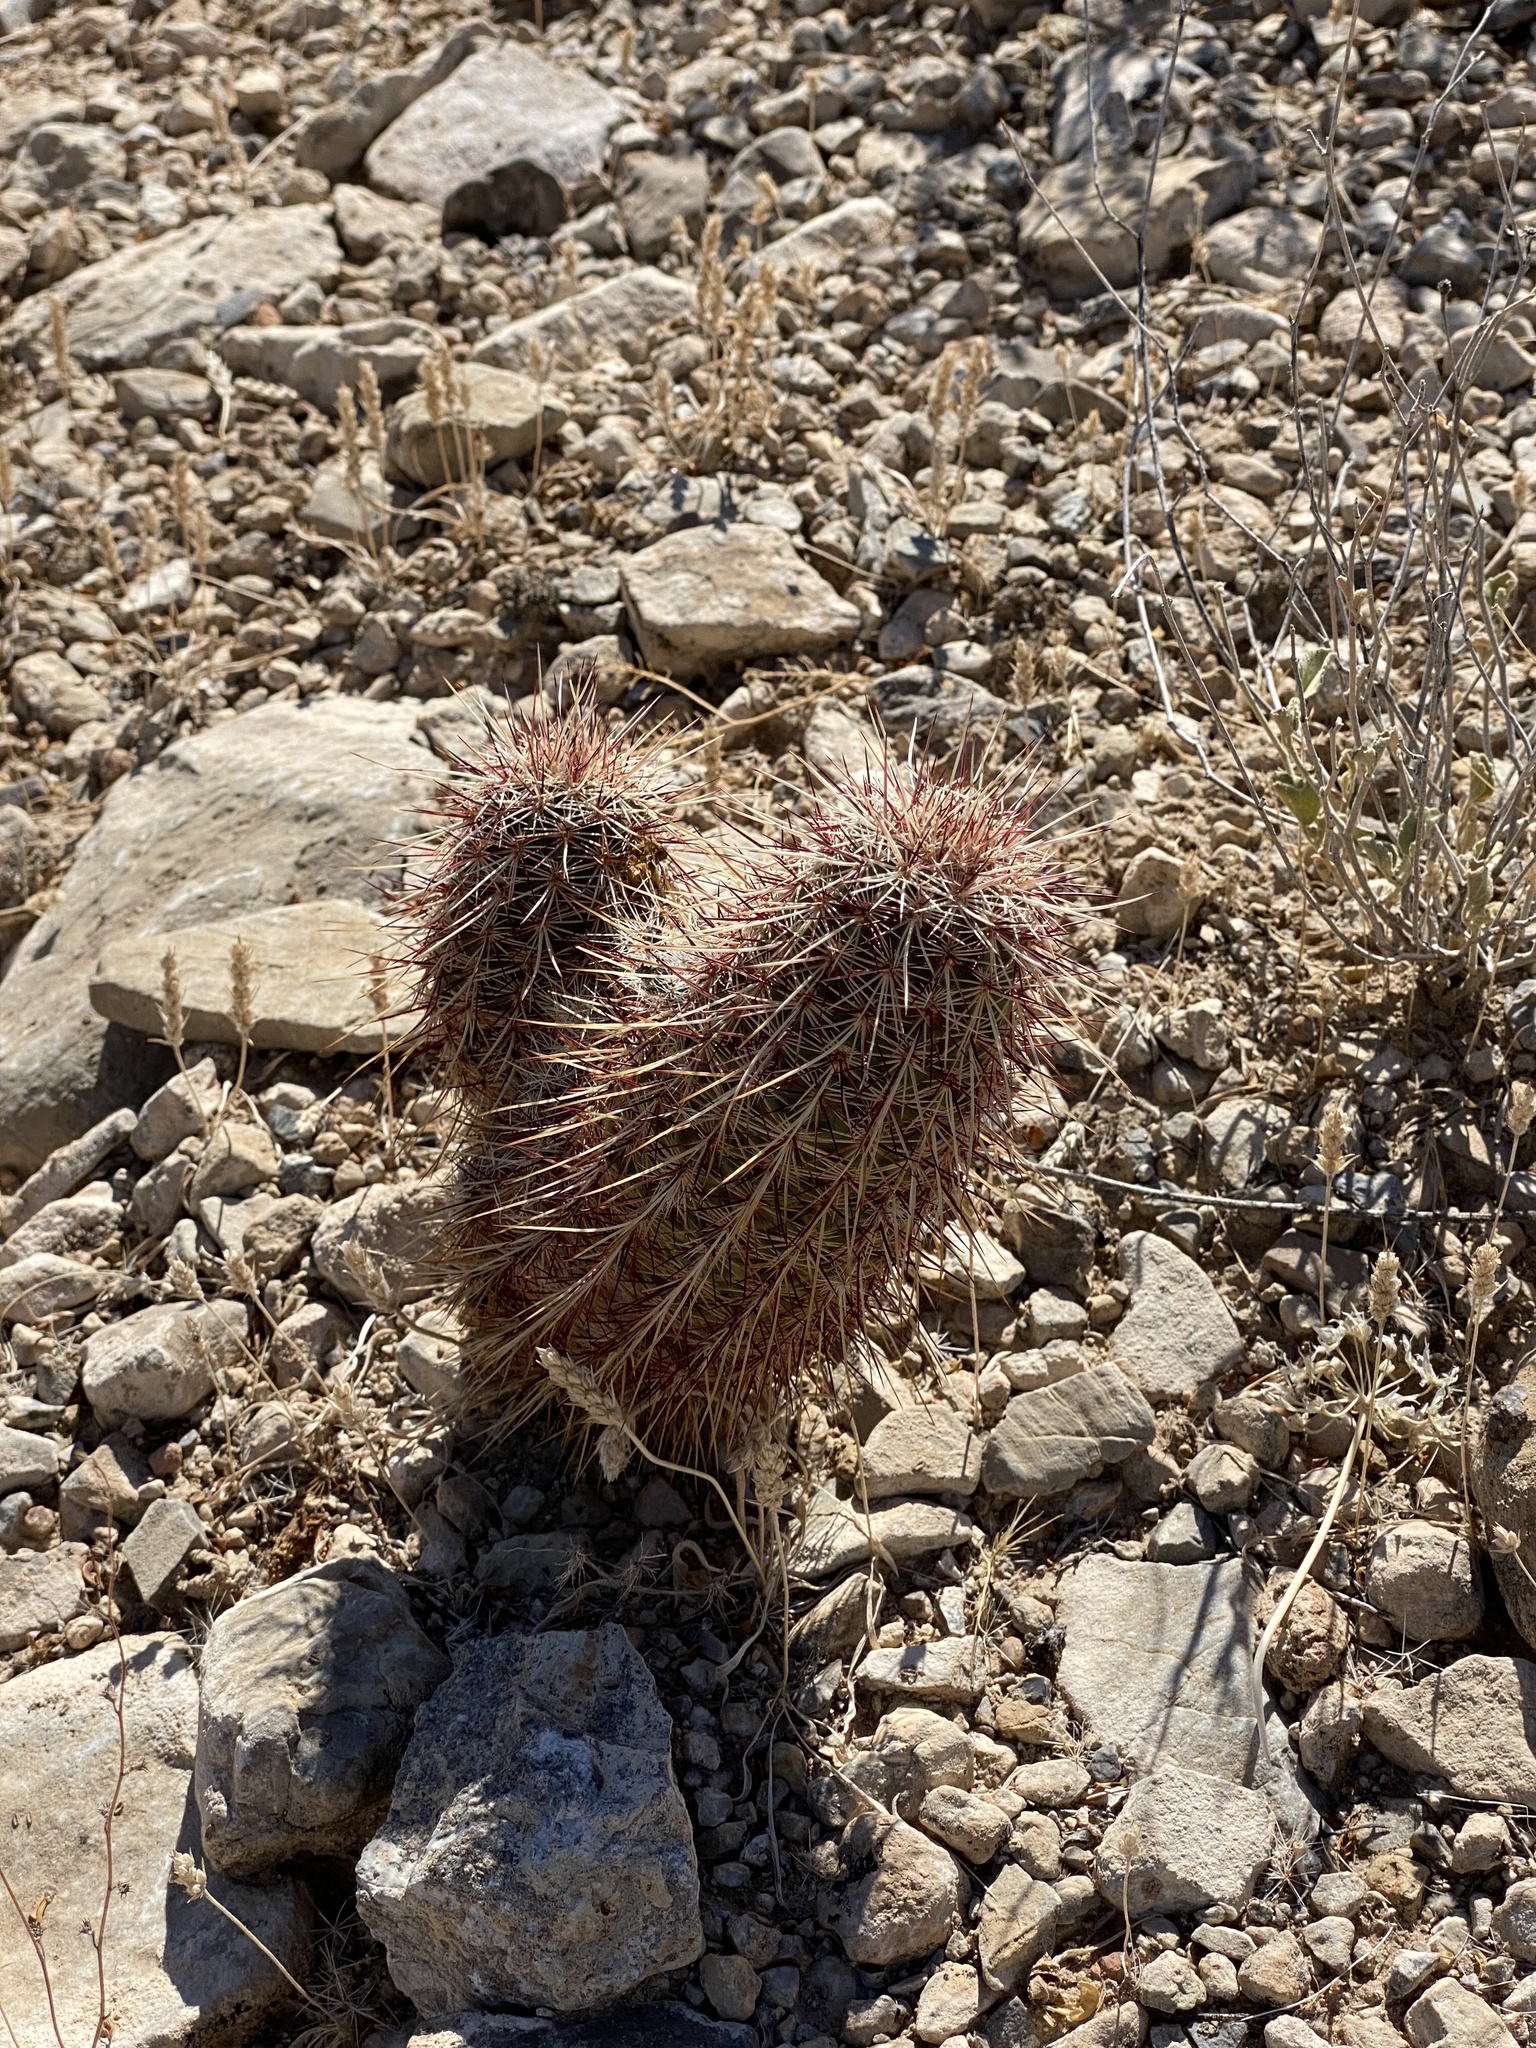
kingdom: Plantae
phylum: Tracheophyta
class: Magnoliopsida
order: Caryophyllales
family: Cactaceae
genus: Echinocereus
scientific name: Echinocereus viridiflorus
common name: Nylon hedgehog cactus
